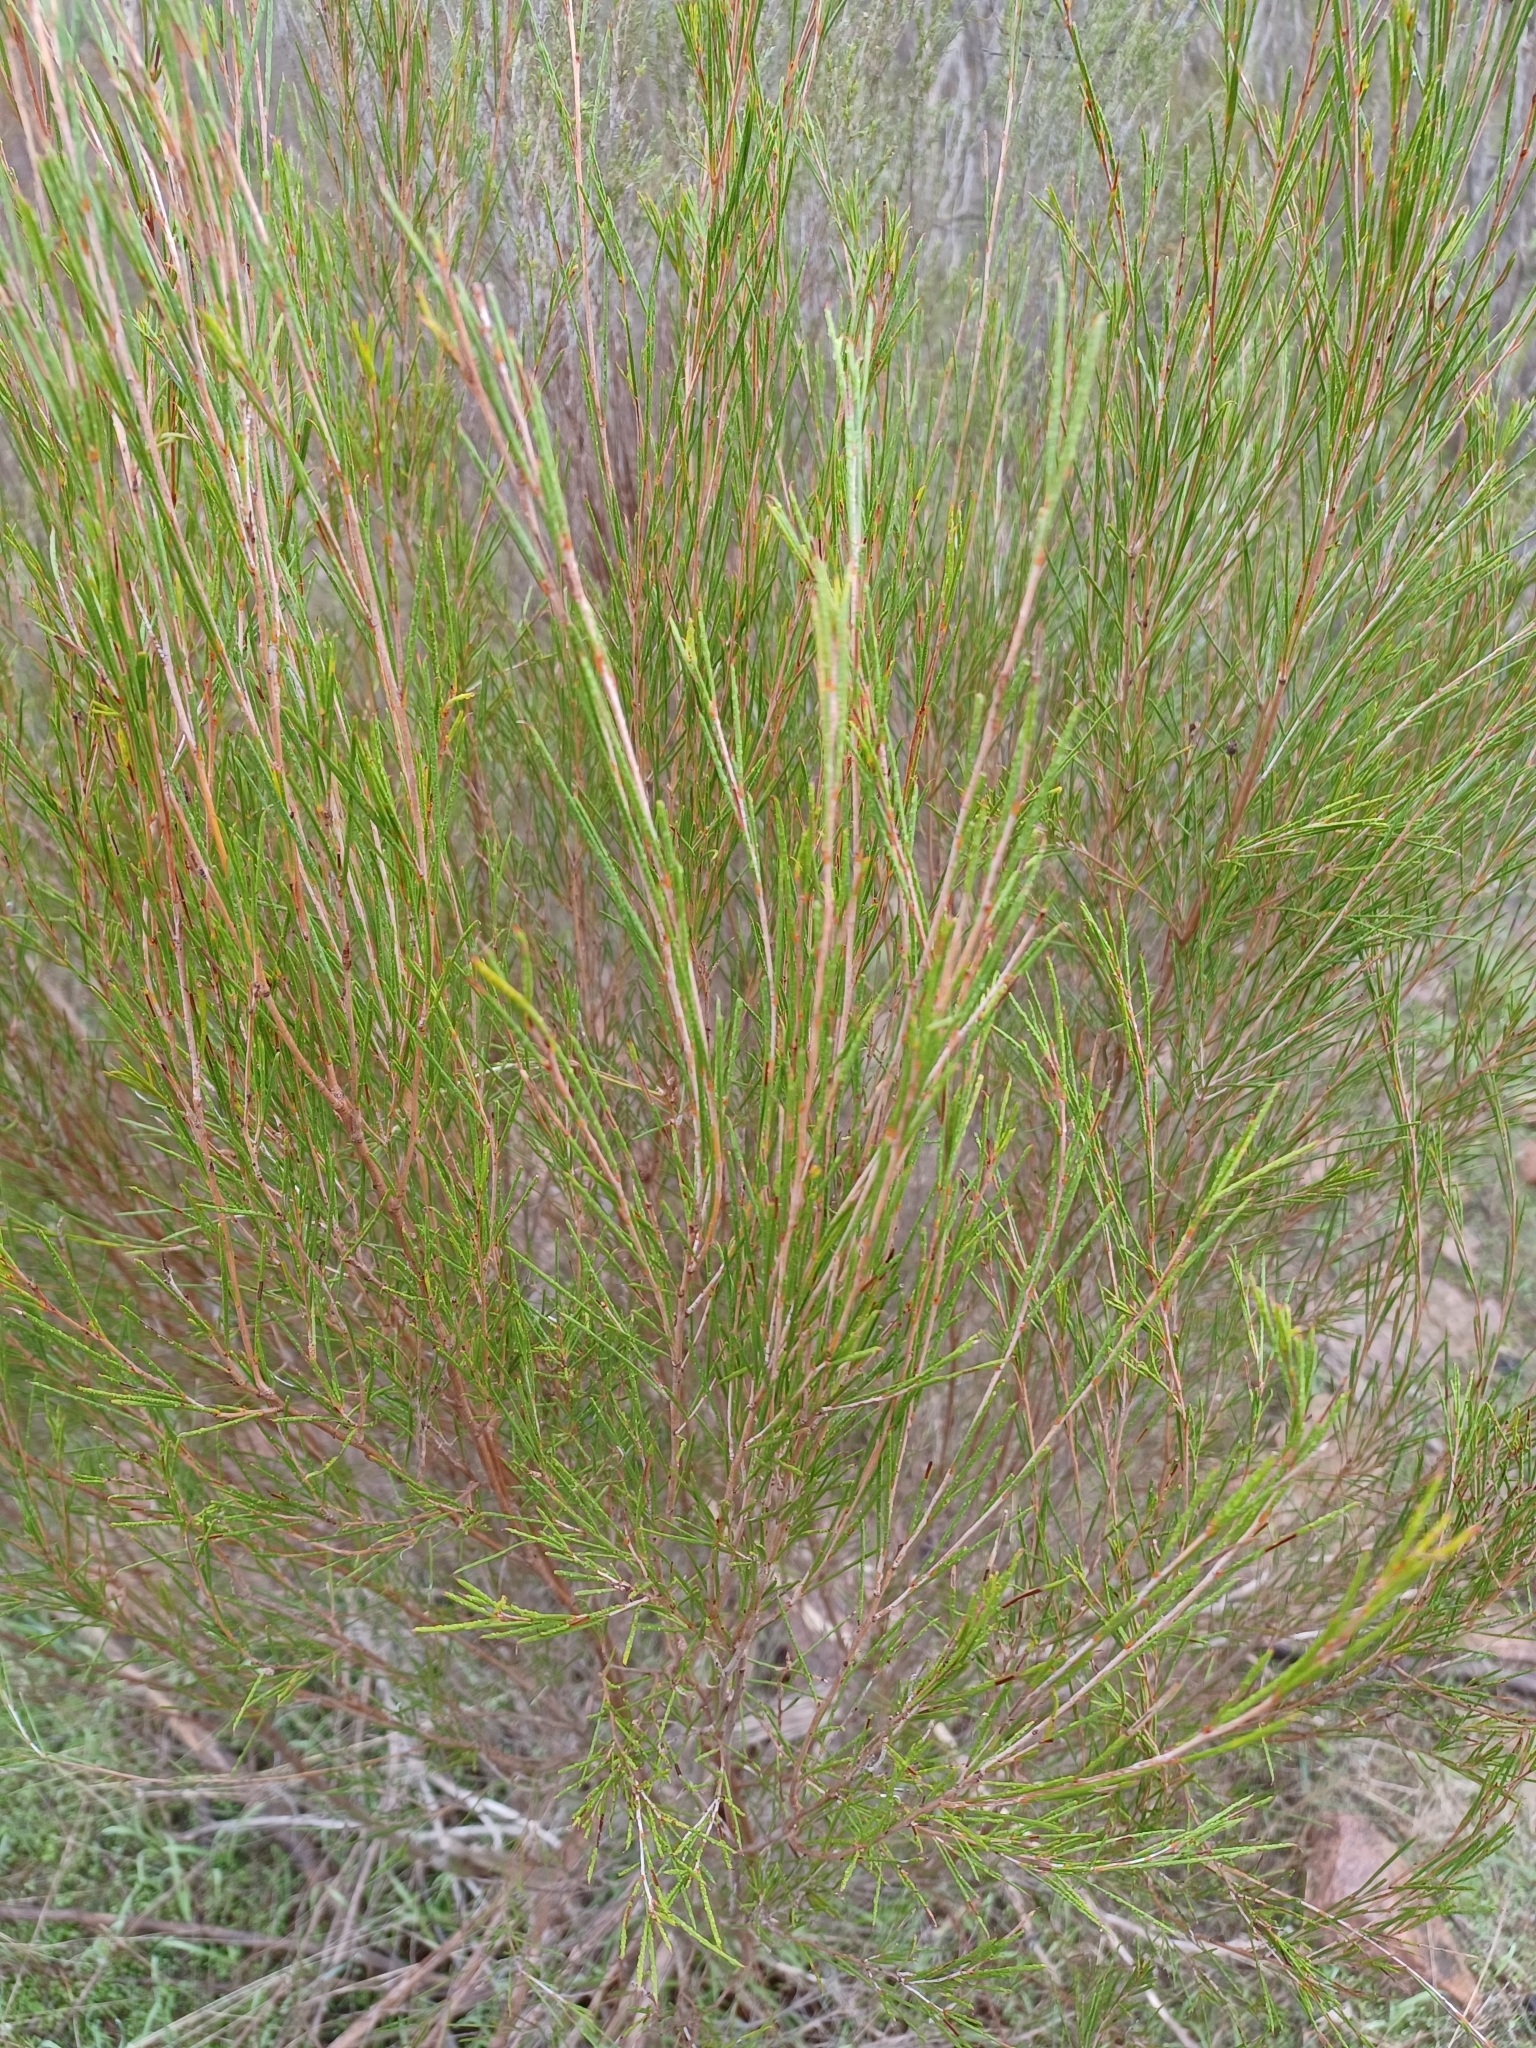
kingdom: Plantae
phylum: Tracheophyta
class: Magnoliopsida
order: Myrtales
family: Myrtaceae
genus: Melaleuca
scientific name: Melaleuca uncinata
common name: Broom honey myrtle
